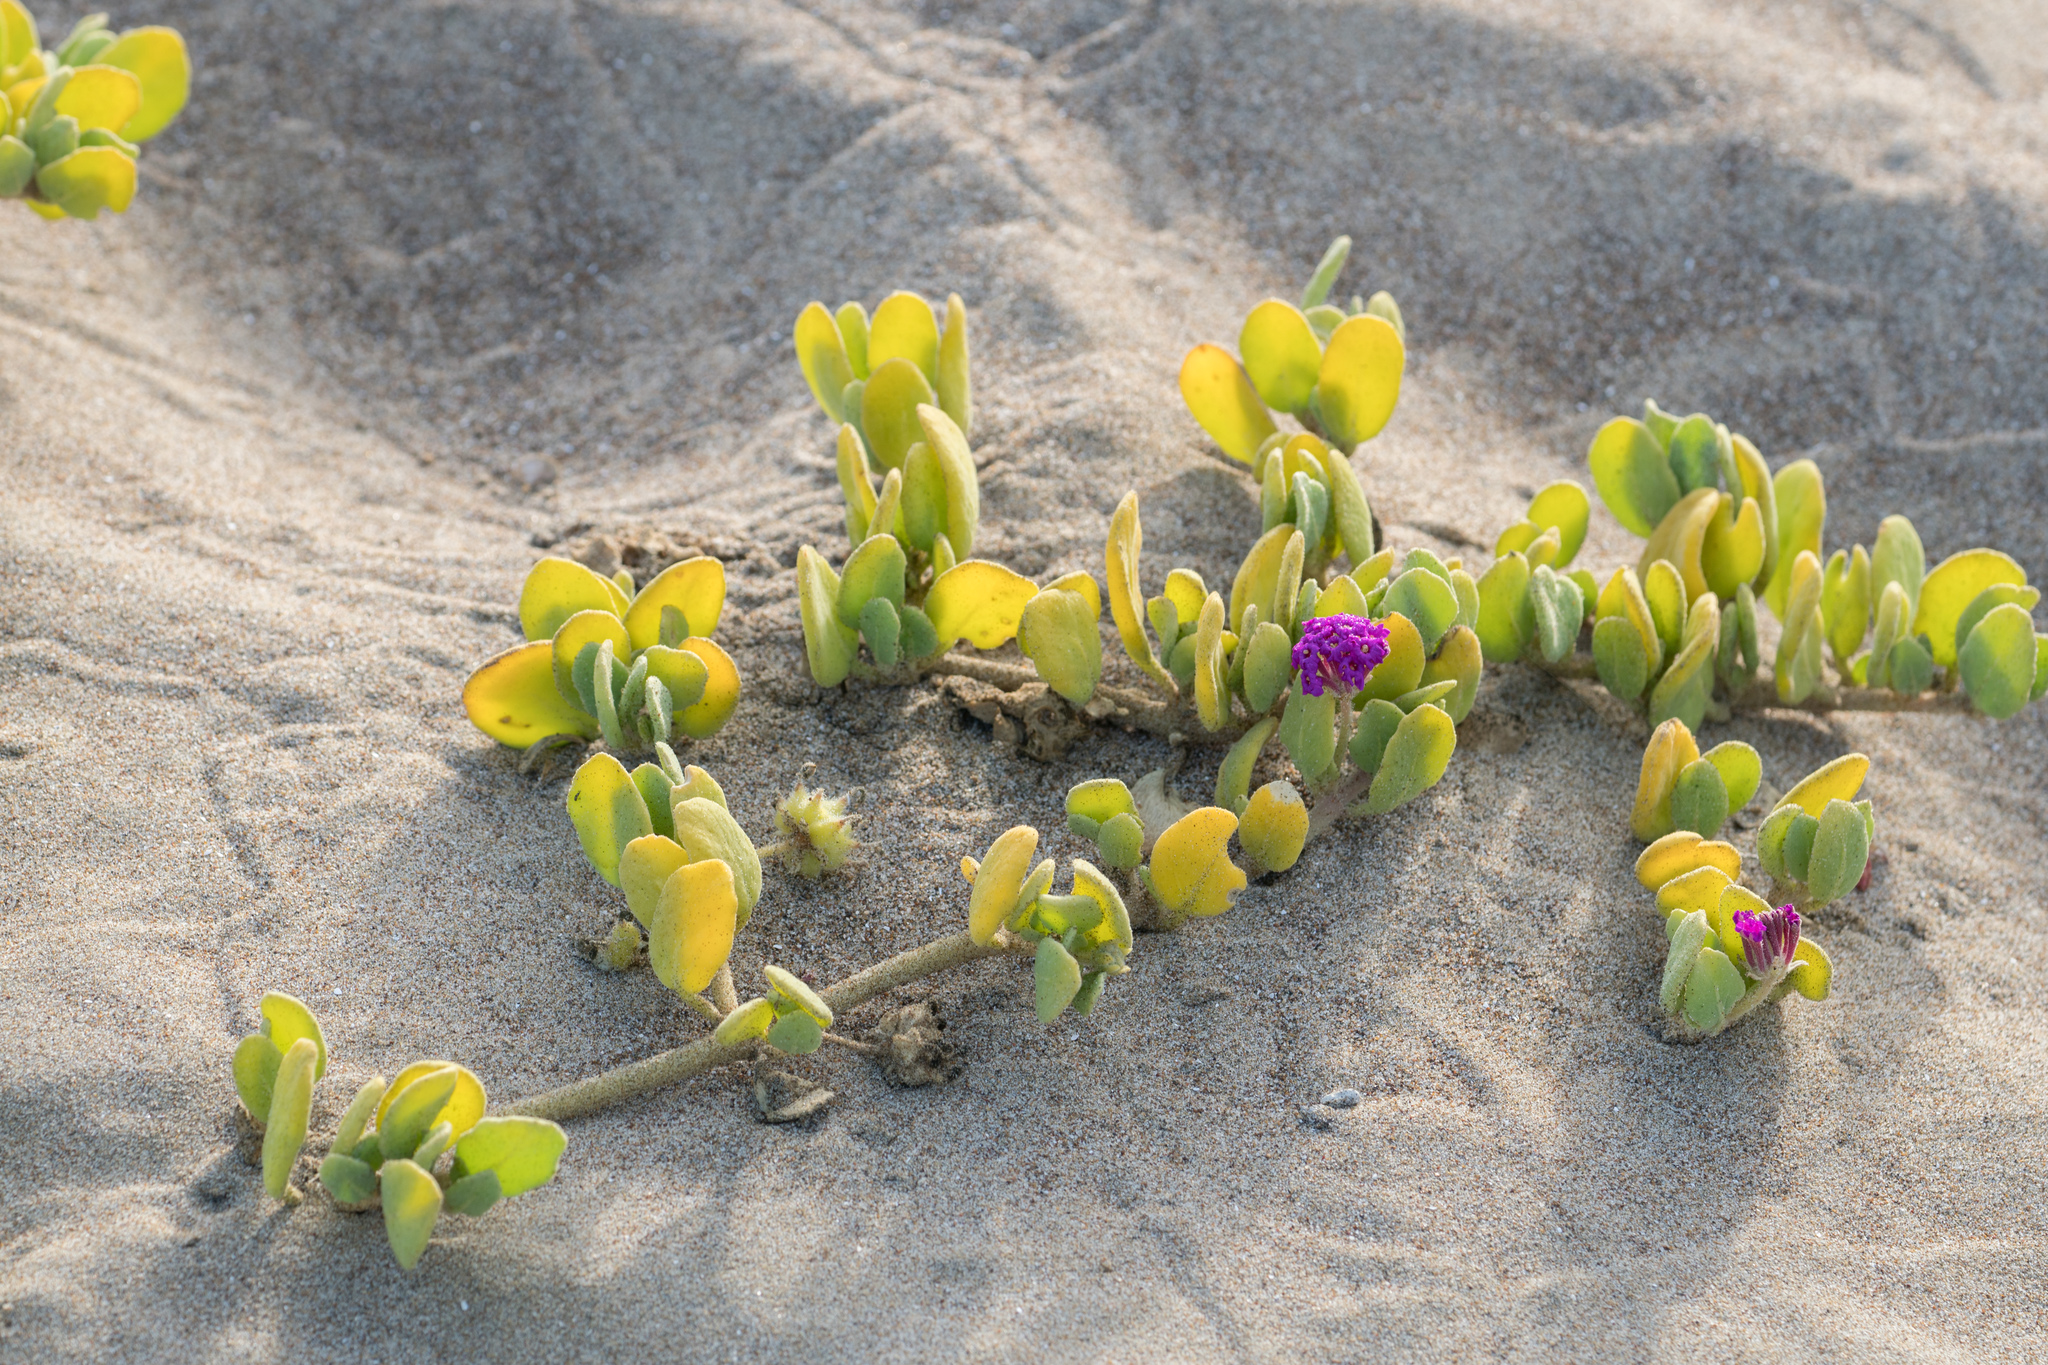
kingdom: Plantae
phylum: Tracheophyta
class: Magnoliopsida
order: Caryophyllales
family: Nyctaginaceae
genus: Abronia
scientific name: Abronia maritima
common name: Red sand-verbena
